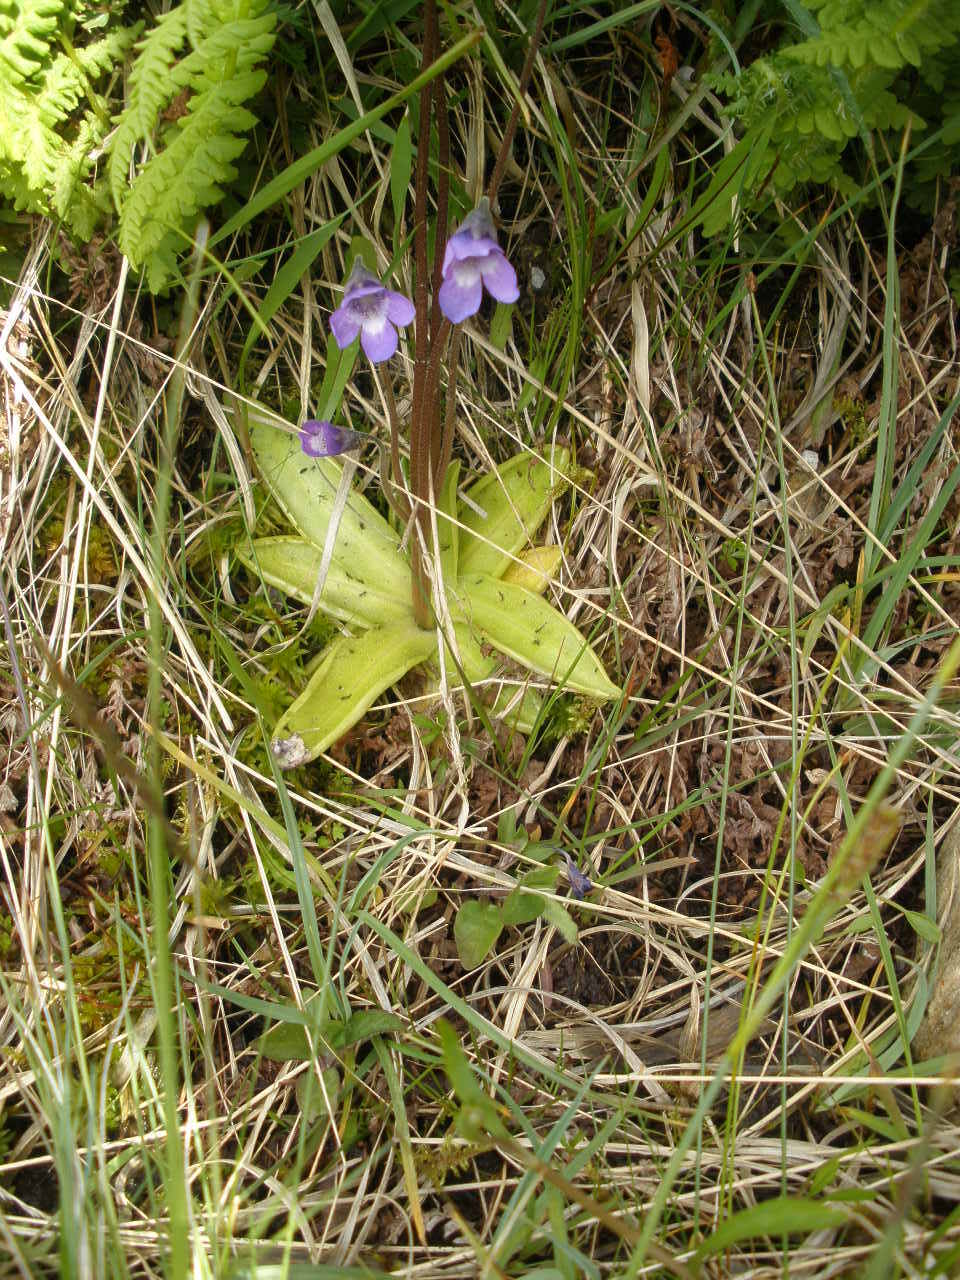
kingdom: Plantae
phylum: Tracheophyta
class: Magnoliopsida
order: Lamiales
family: Lentibulariaceae
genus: Pinguicula
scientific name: Pinguicula vulgaris
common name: Common butterwort
